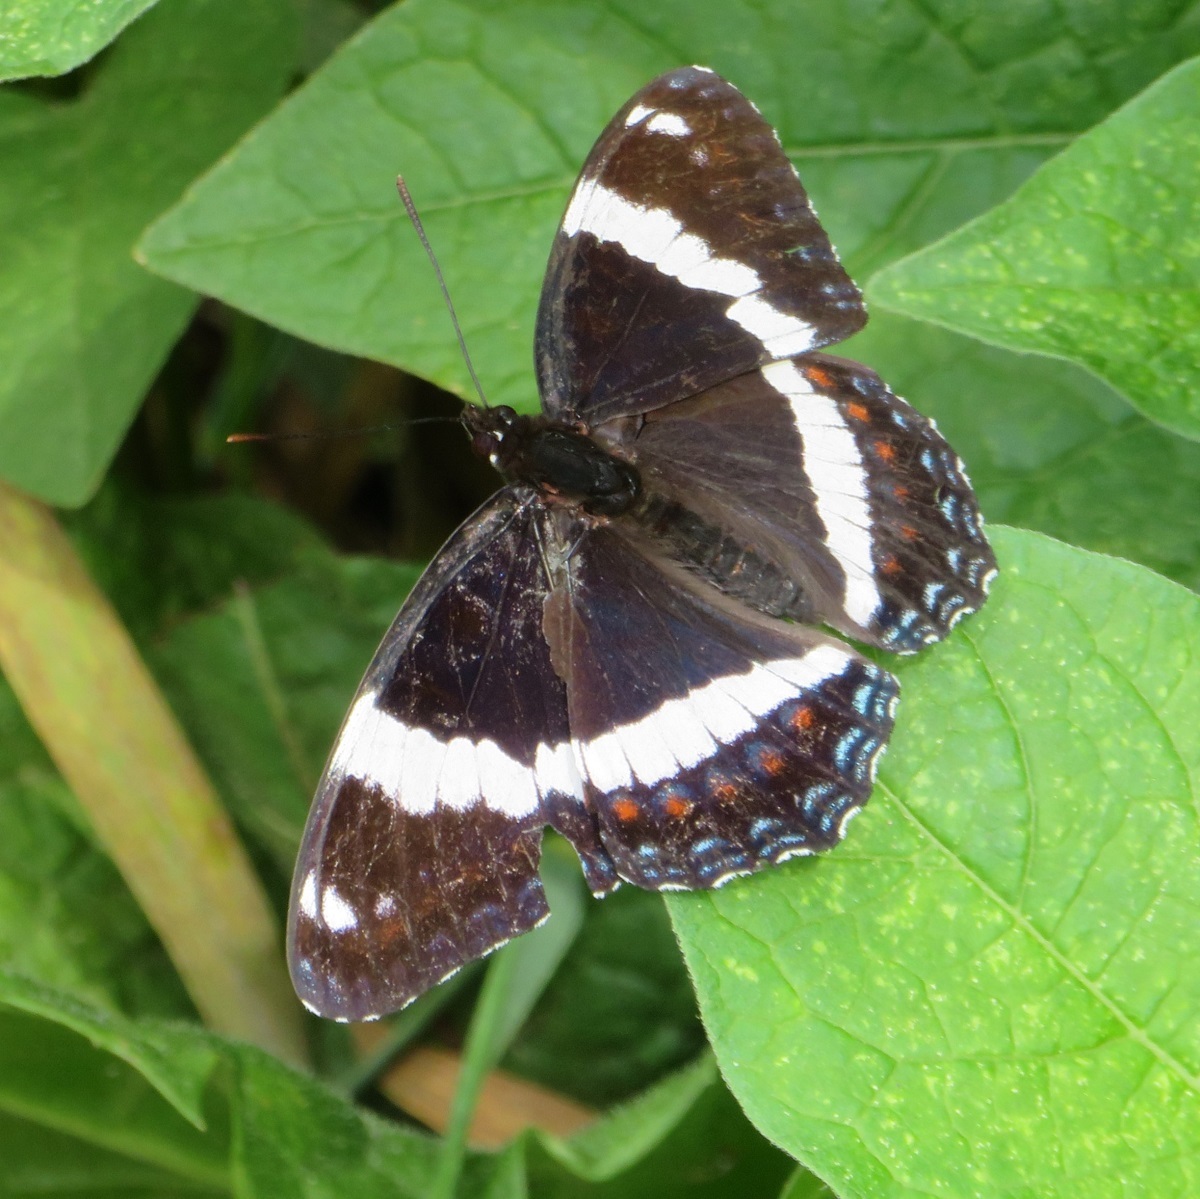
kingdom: Animalia
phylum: Arthropoda
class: Insecta
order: Lepidoptera
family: Nymphalidae
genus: Limenitis
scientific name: Limenitis arthemis
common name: Red-spotted admiral
